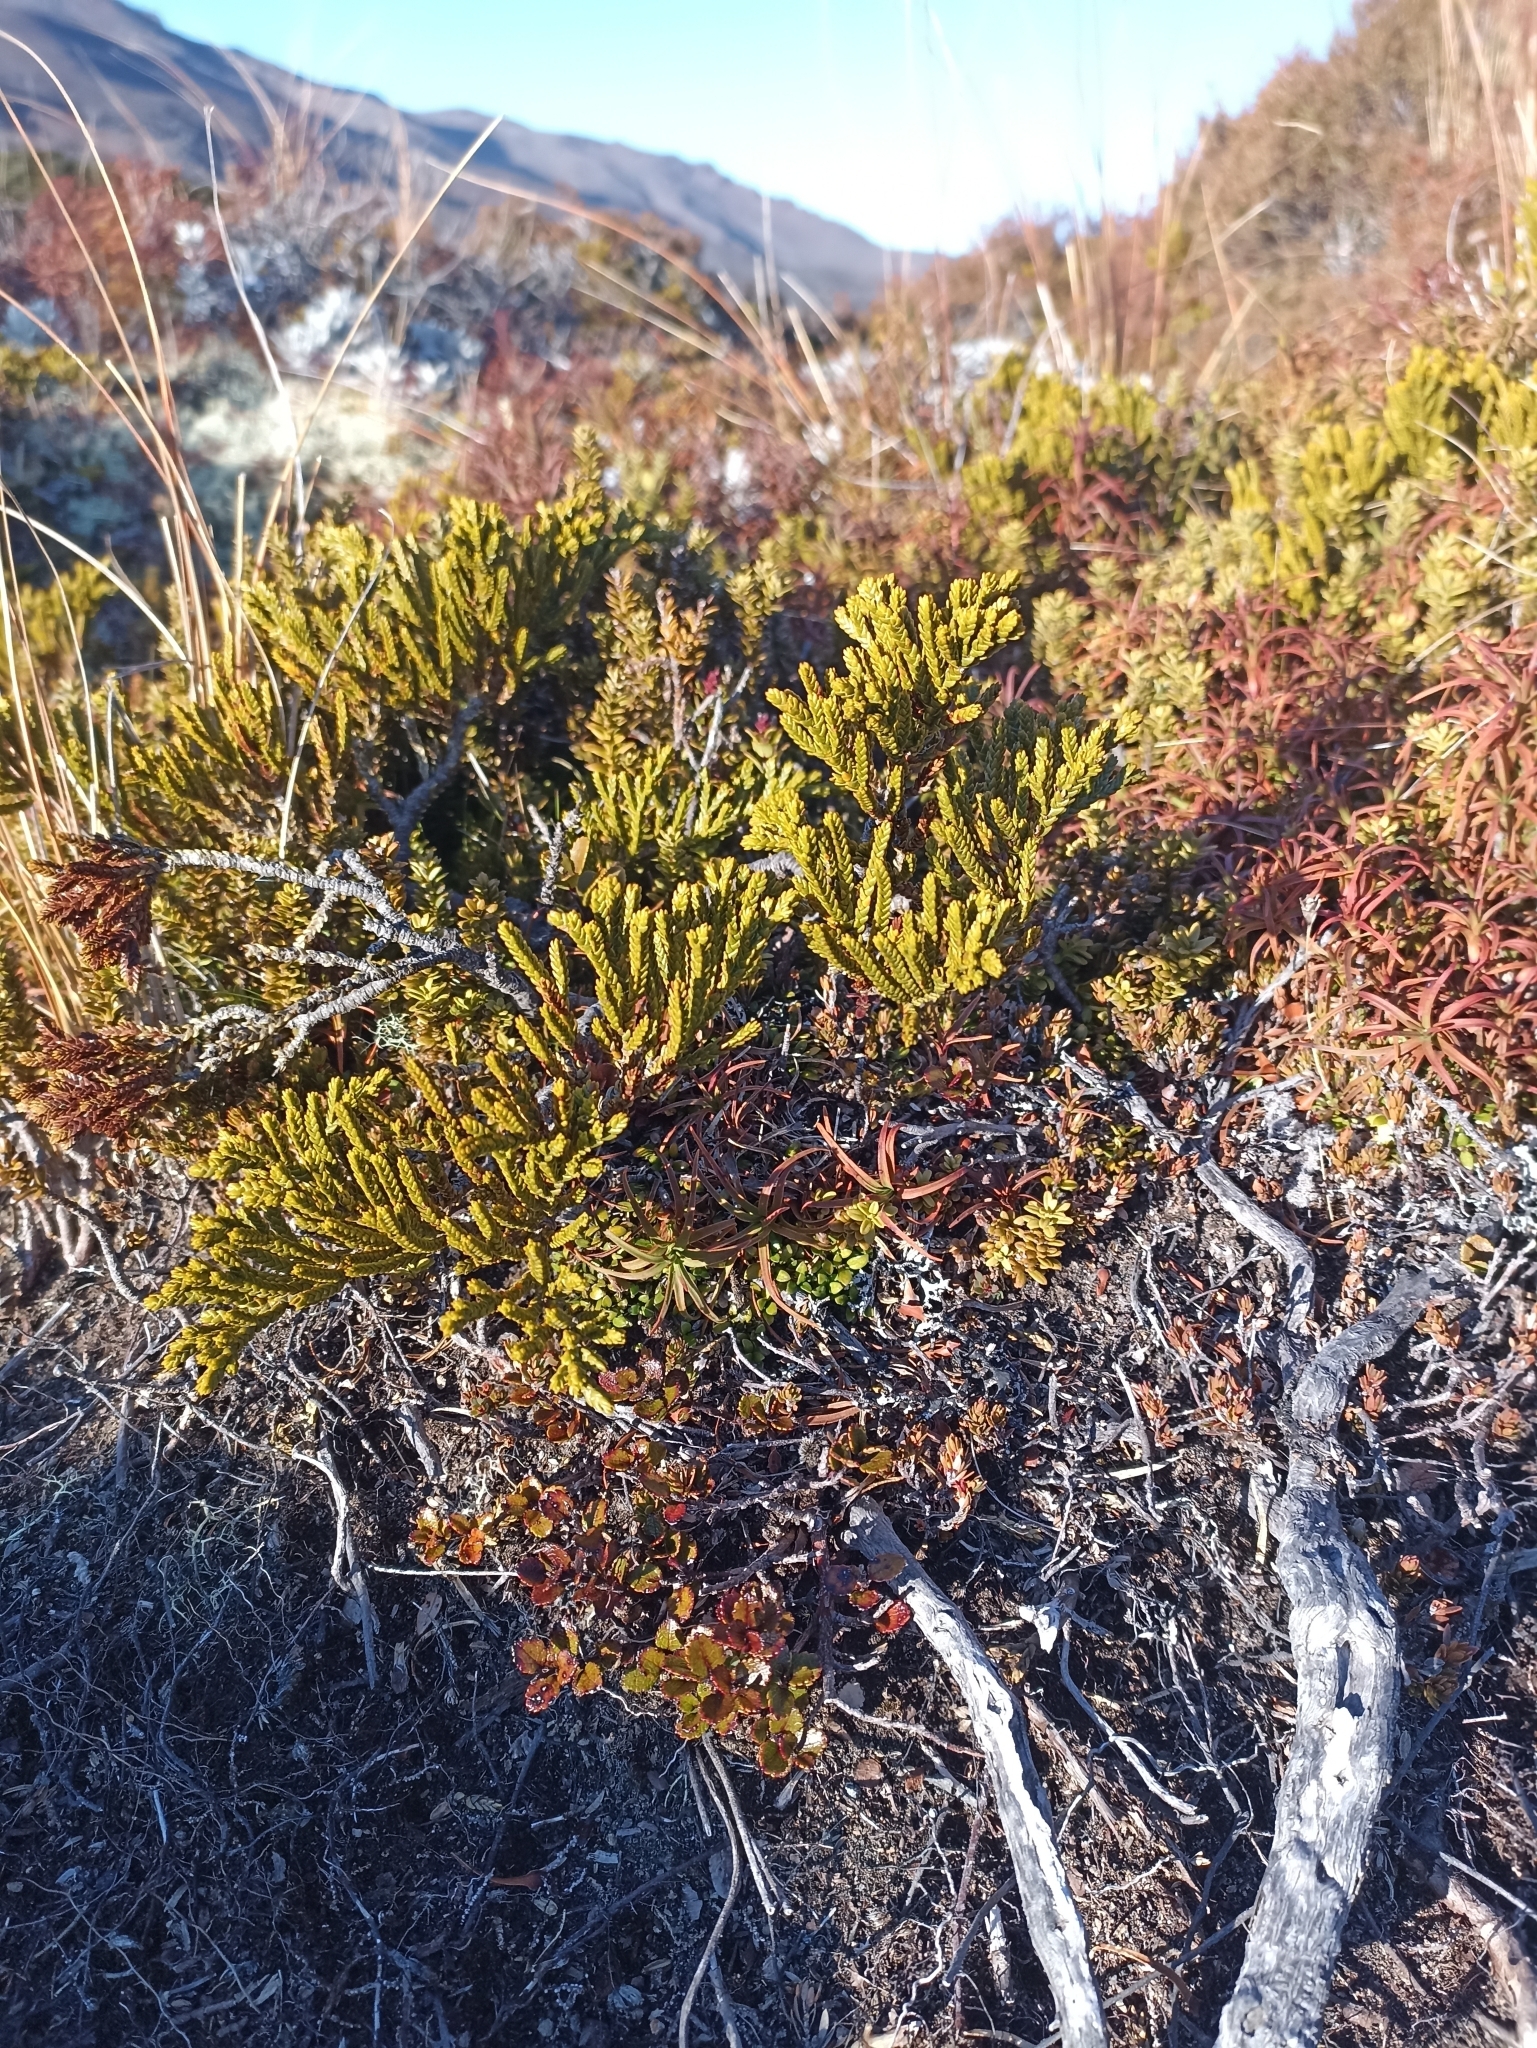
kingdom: Plantae
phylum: Tracheophyta
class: Magnoliopsida
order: Lamiales
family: Plantaginaceae
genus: Veronica
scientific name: Veronica tetragona
